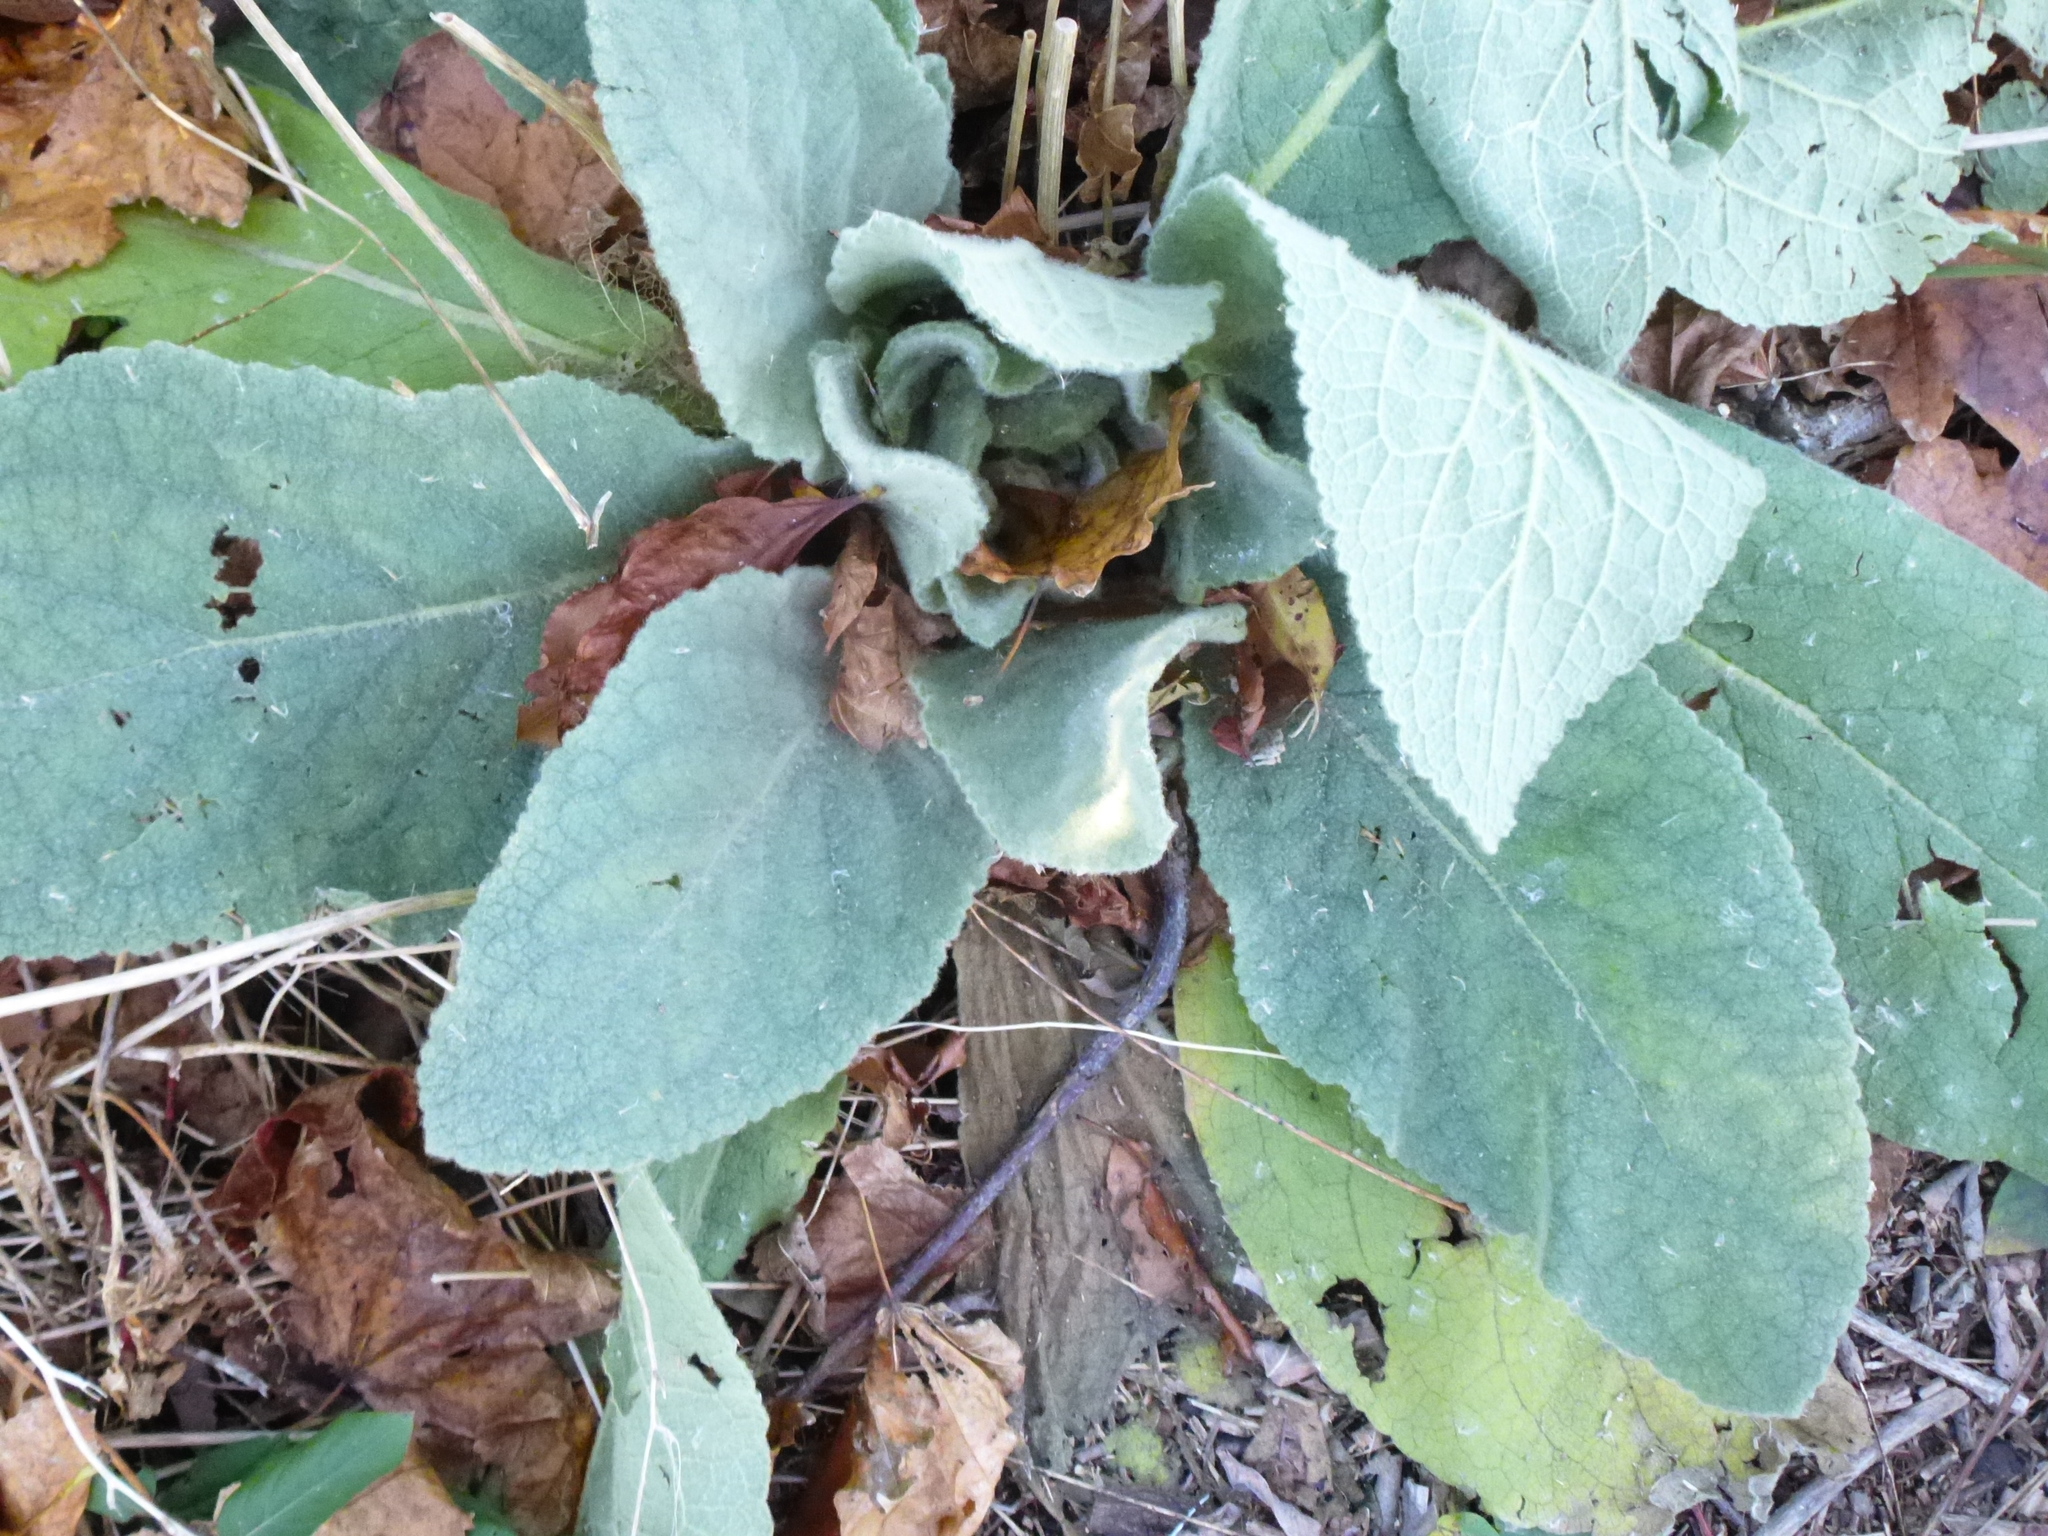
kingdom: Plantae
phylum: Tracheophyta
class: Magnoliopsida
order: Lamiales
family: Scrophulariaceae
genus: Verbascum
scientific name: Verbascum thapsus
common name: Common mullein
